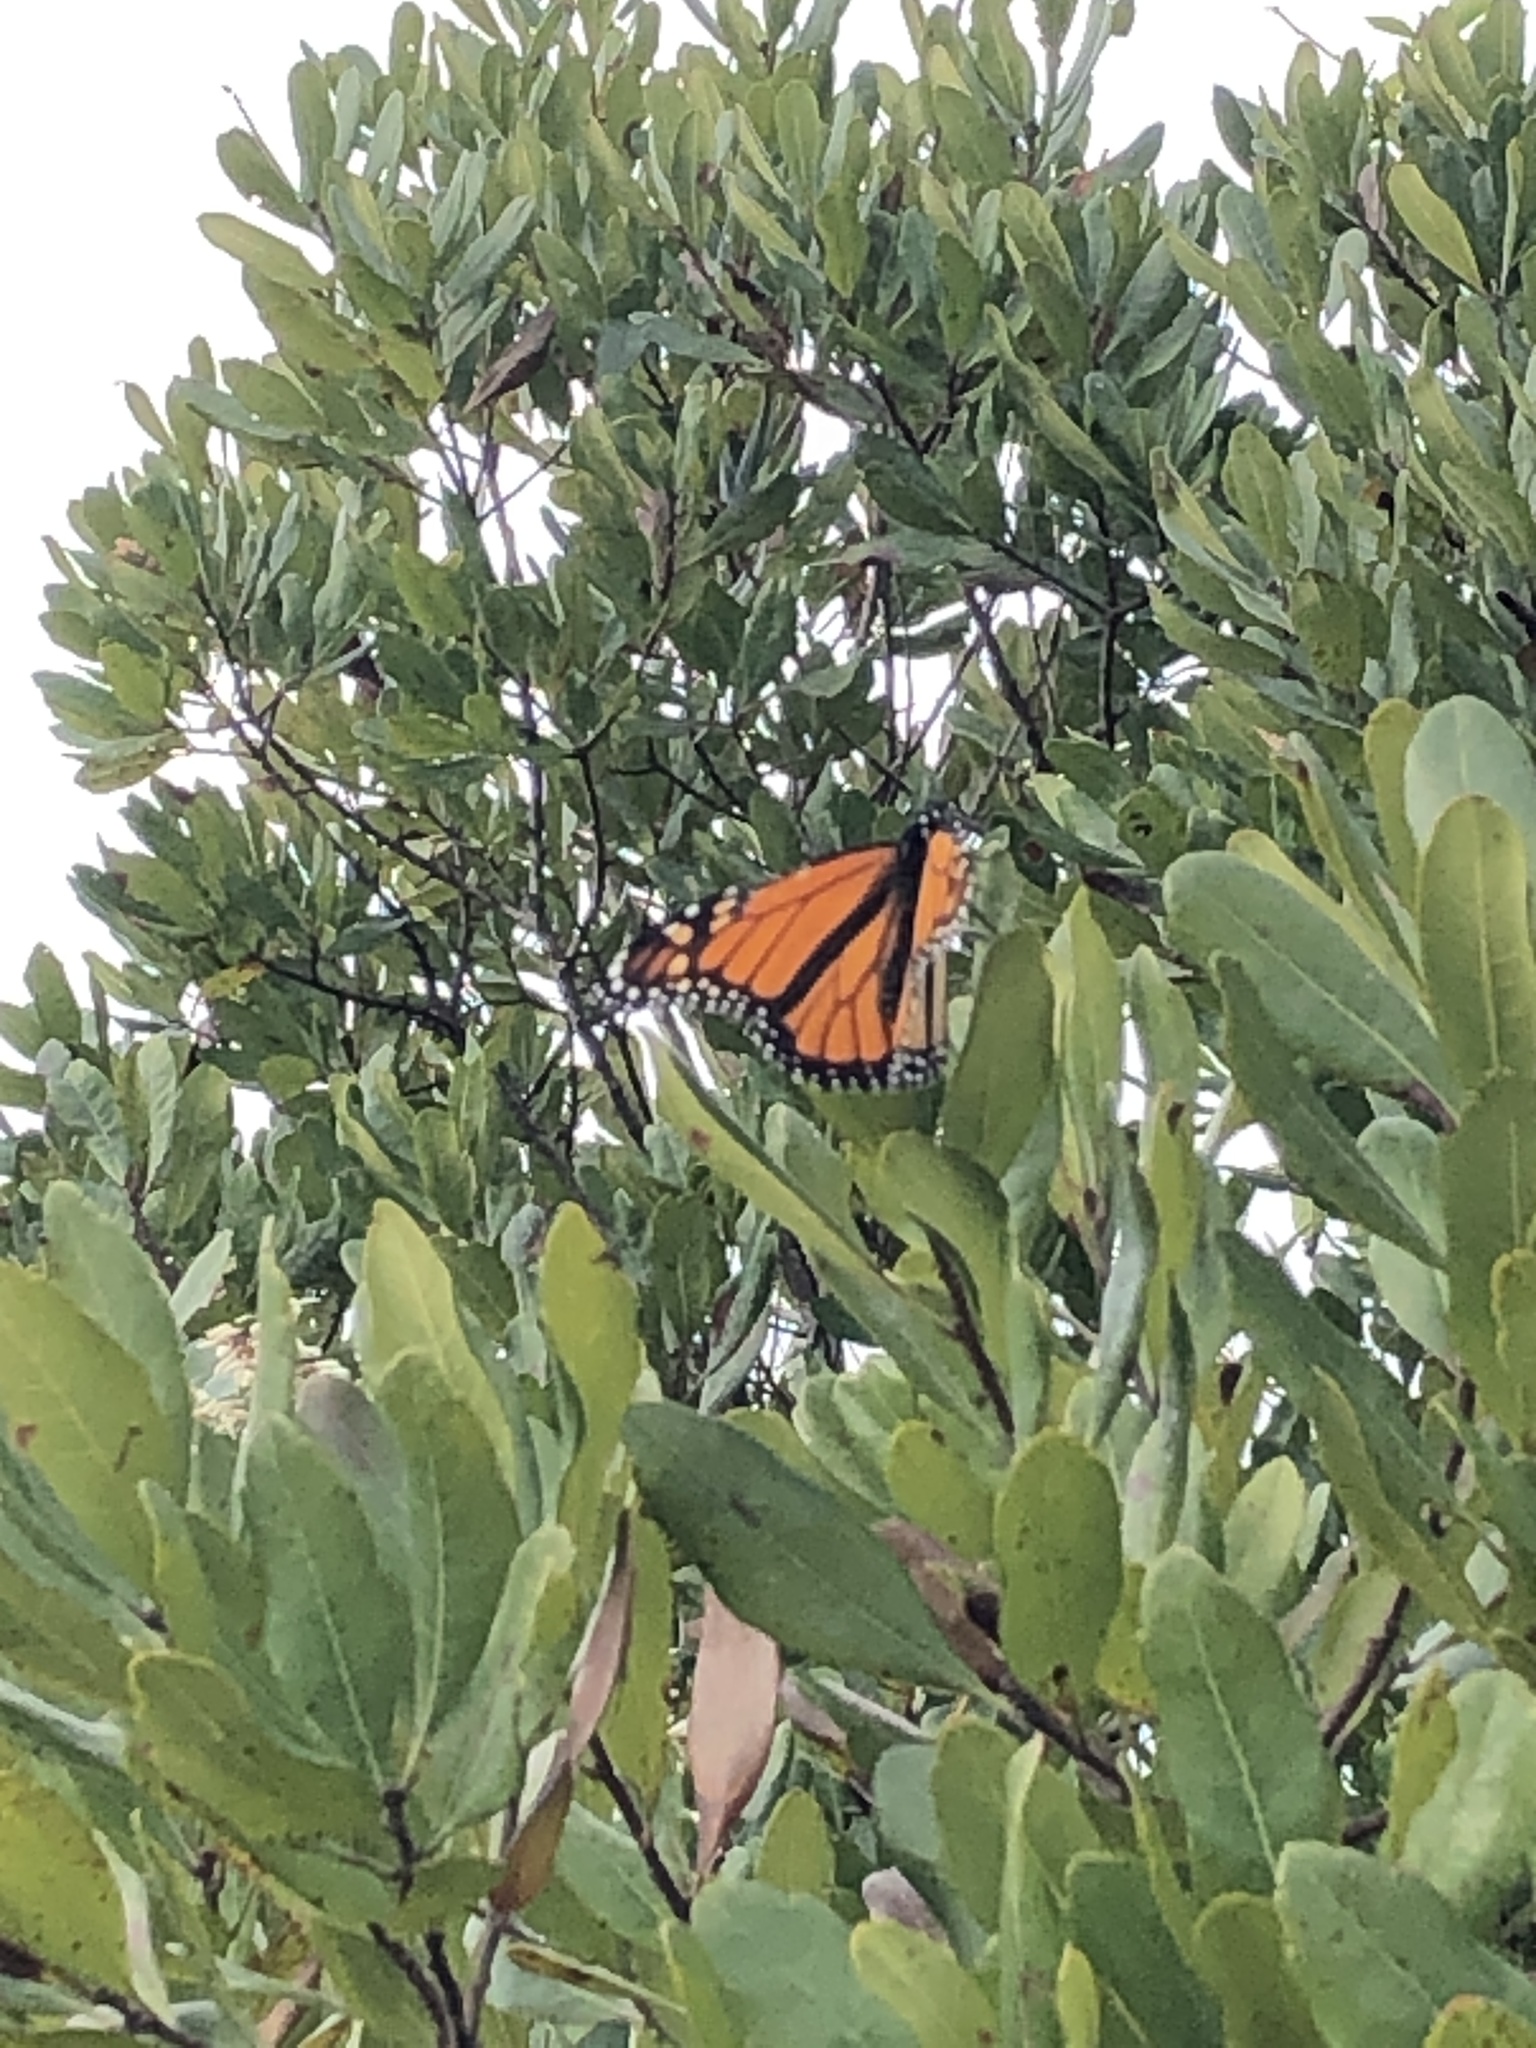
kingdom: Animalia
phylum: Arthropoda
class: Insecta
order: Lepidoptera
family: Nymphalidae
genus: Danaus
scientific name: Danaus plexippus
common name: Monarch
